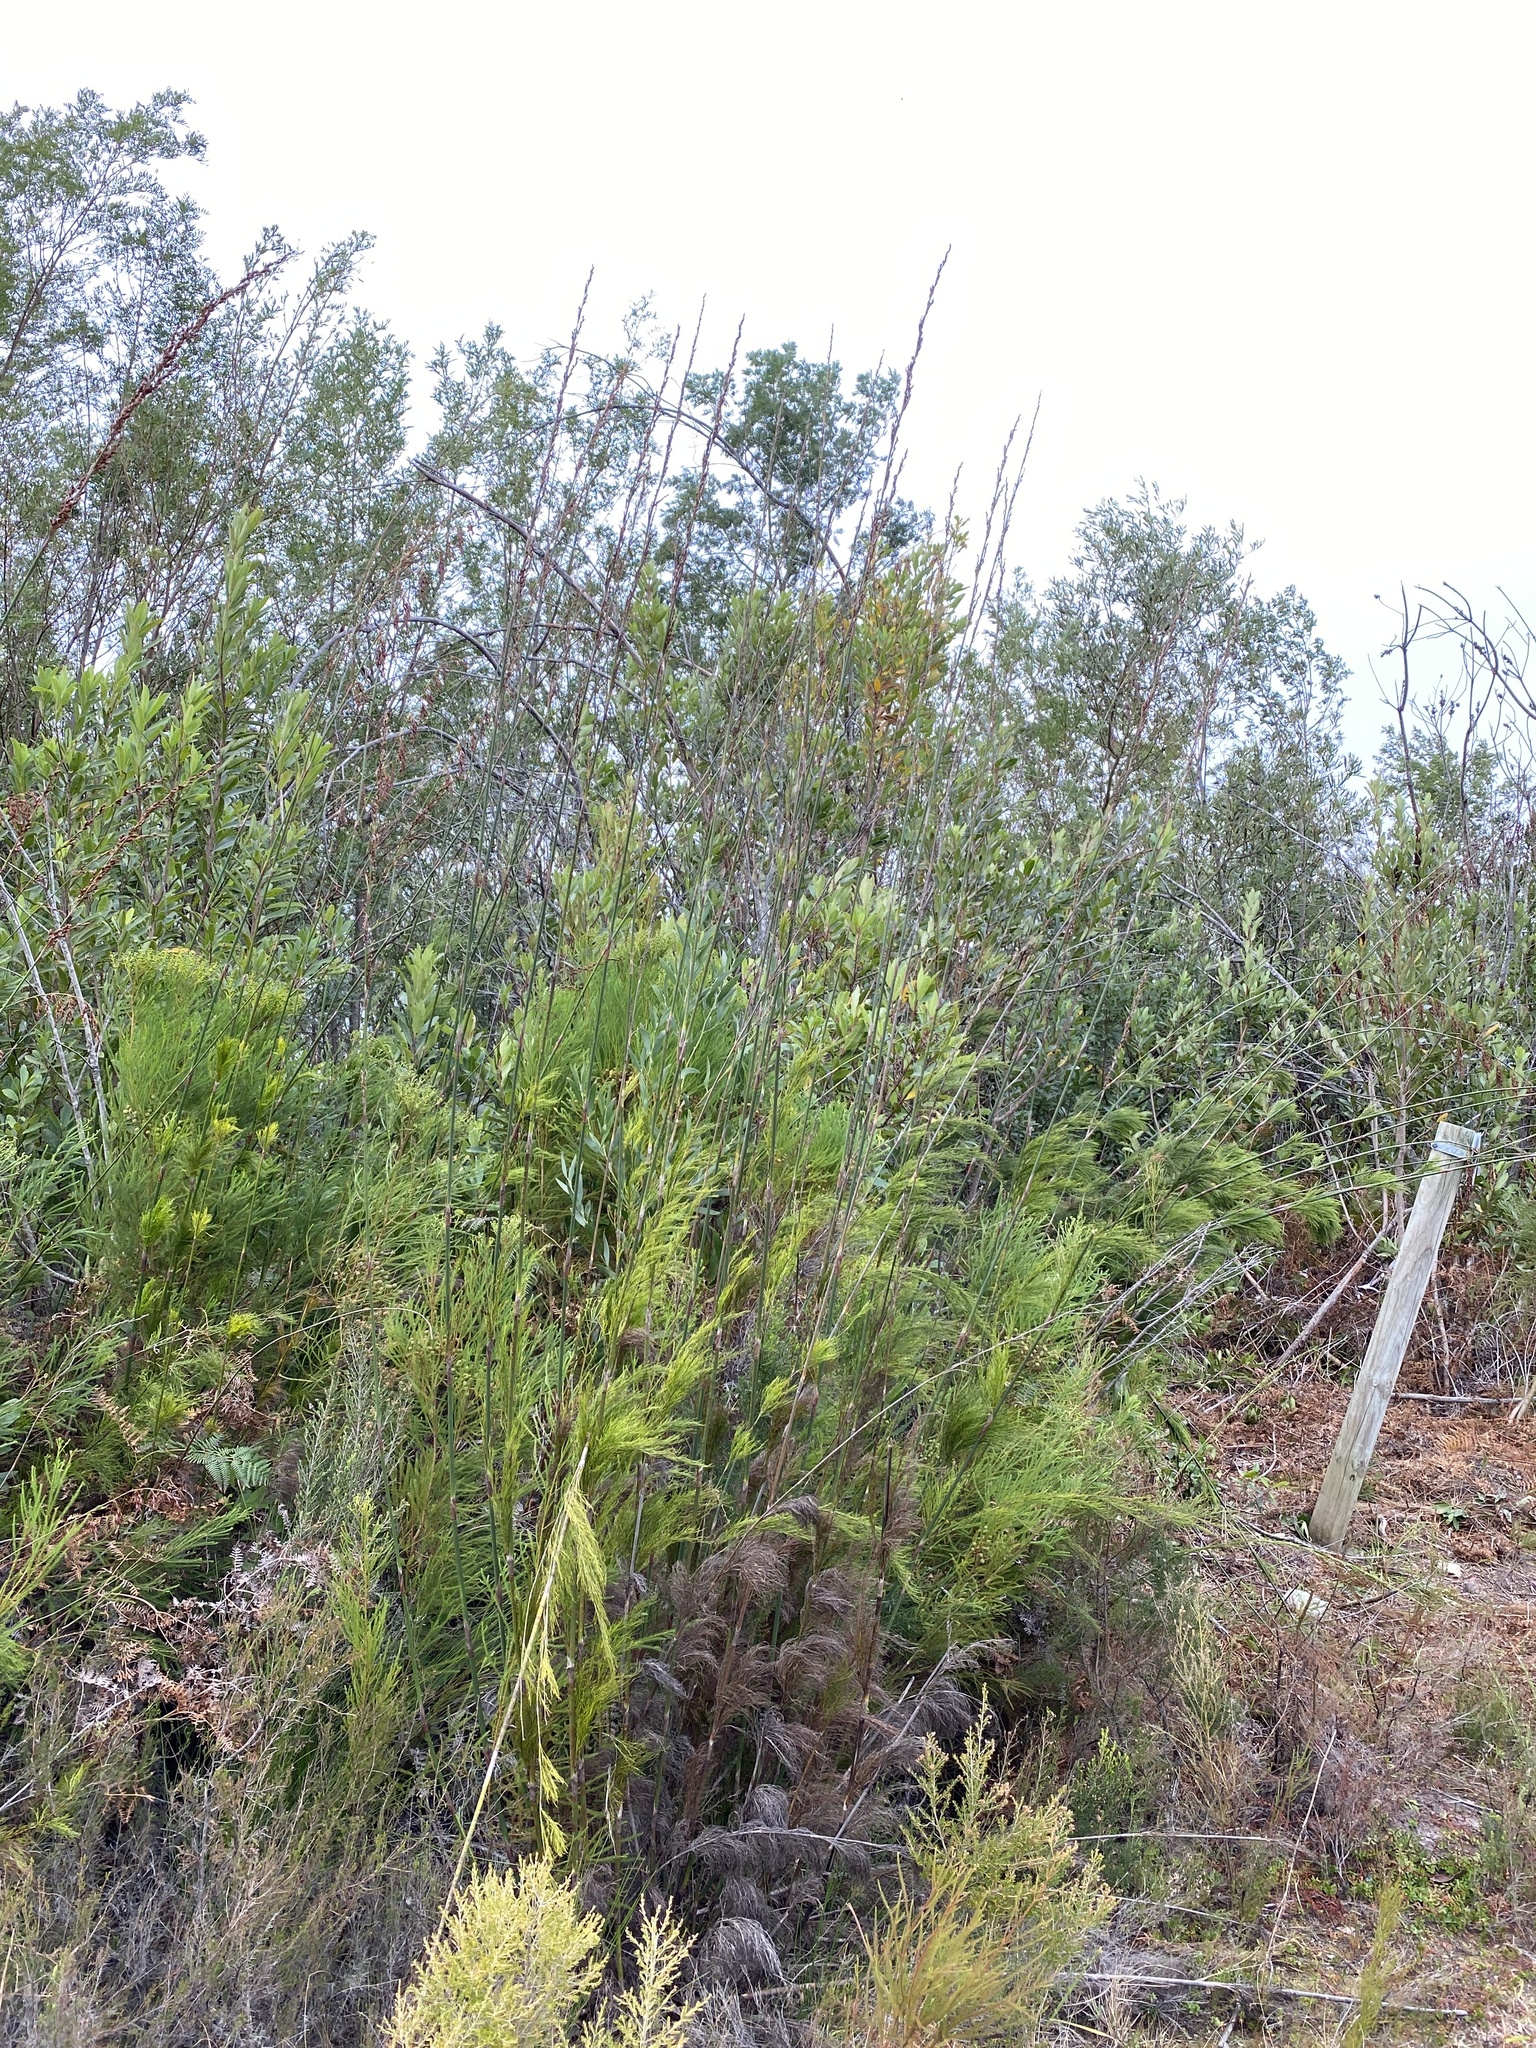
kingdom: Plantae
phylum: Tracheophyta
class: Liliopsida
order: Poales
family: Restionaceae
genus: Rhodocoma
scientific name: Rhodocoma gigantea
